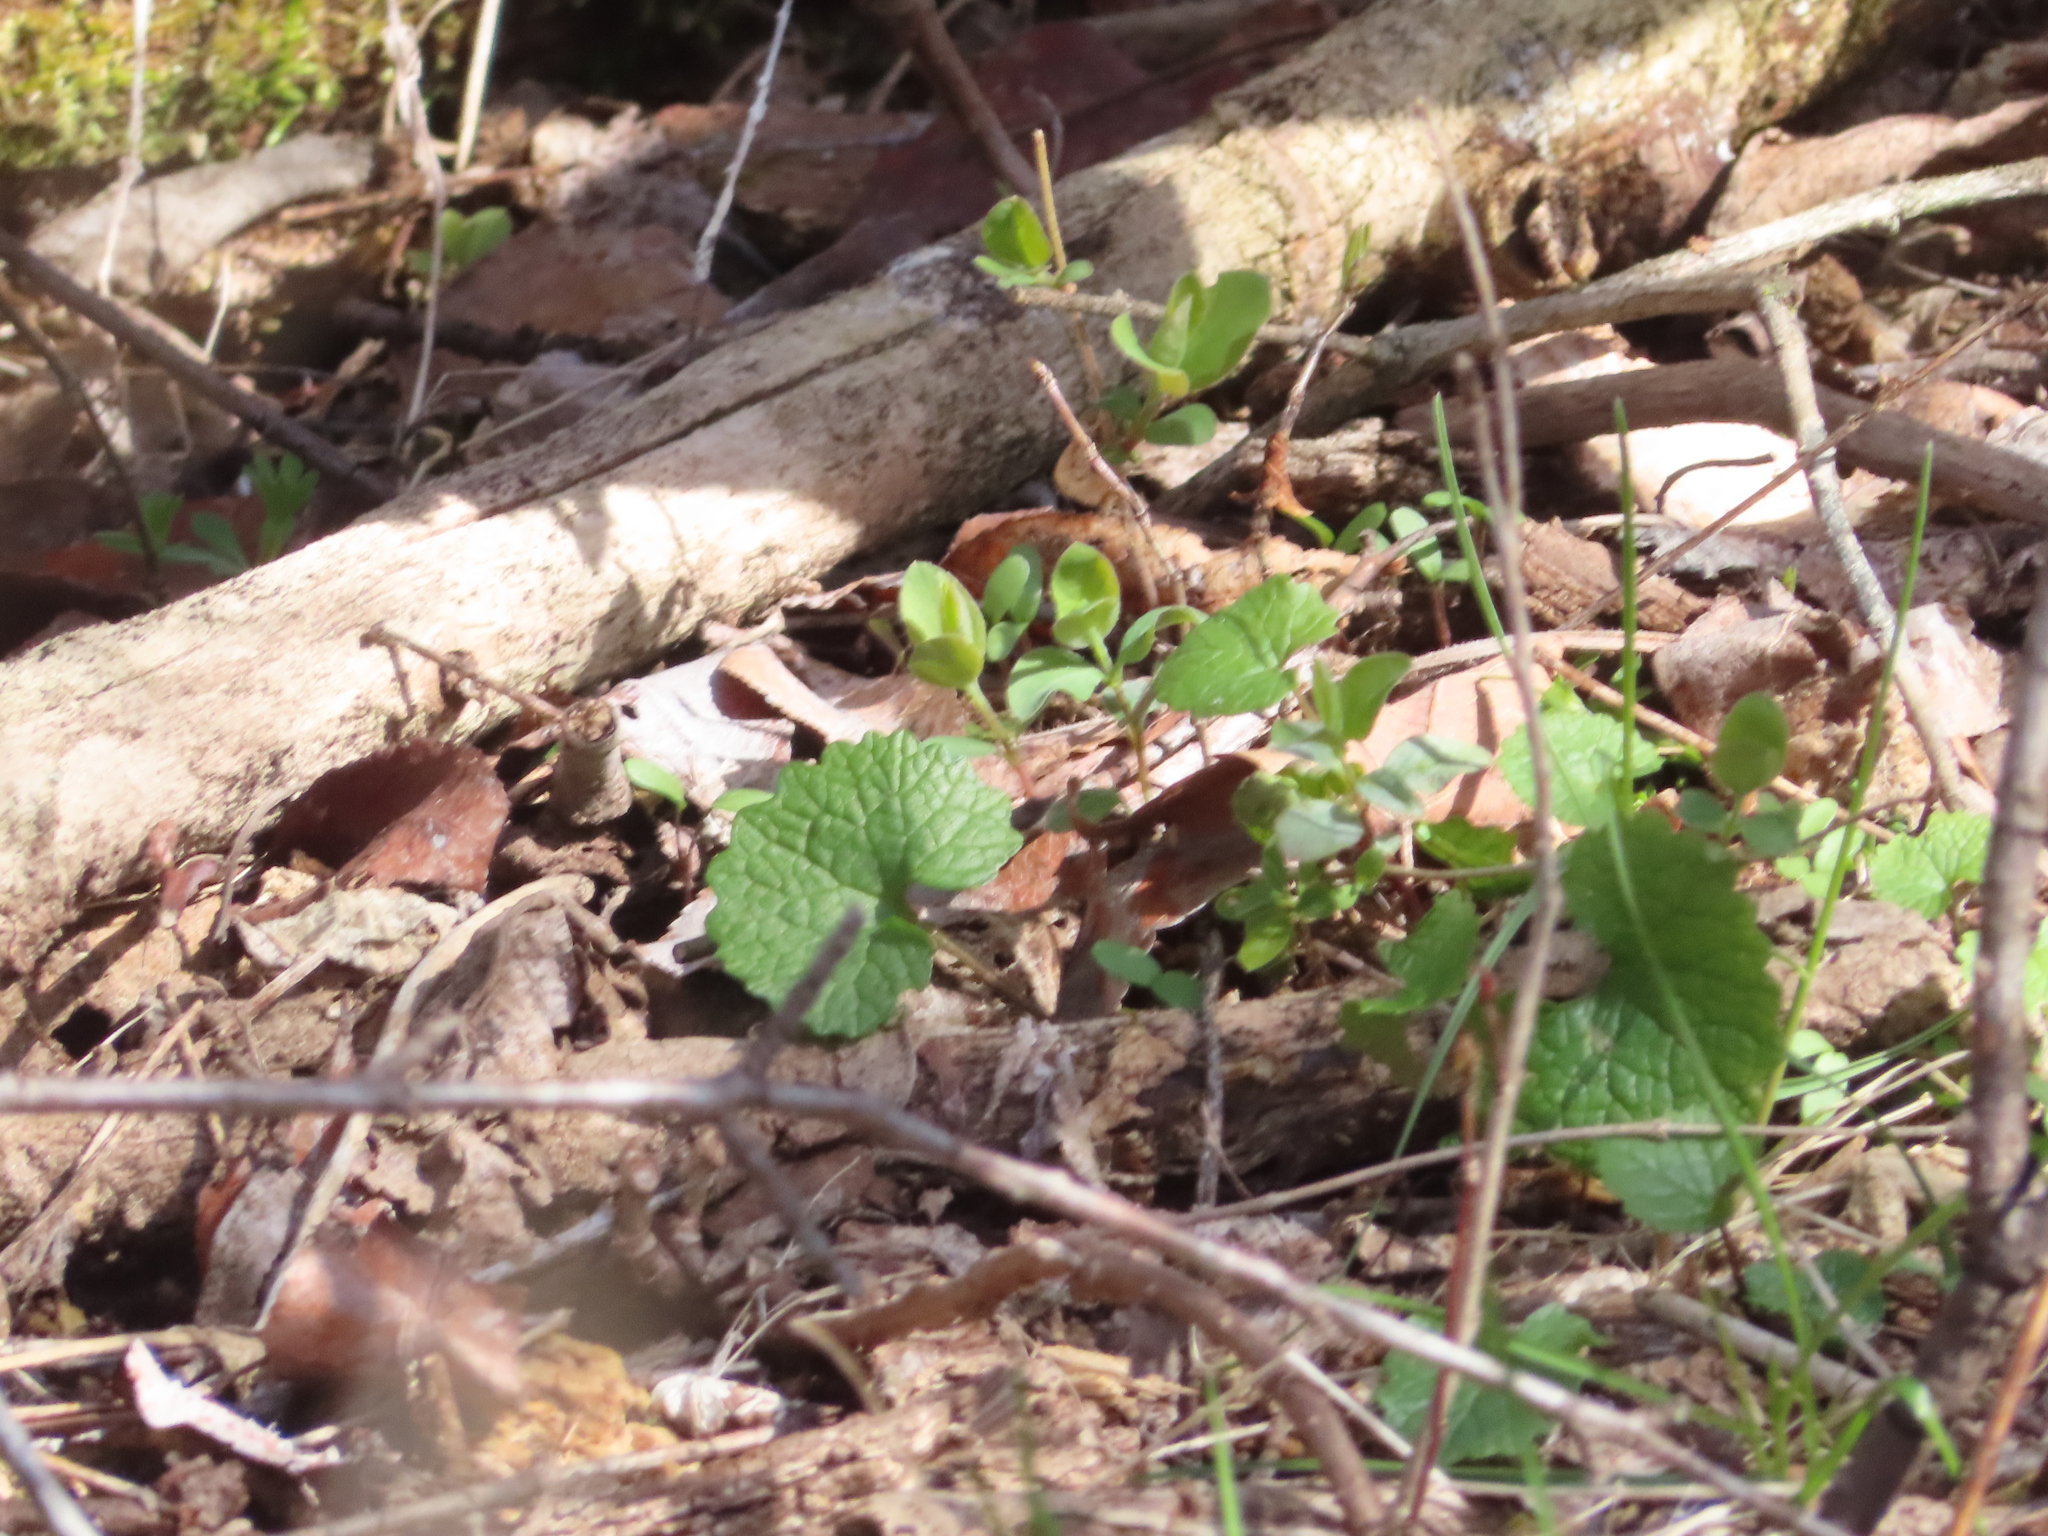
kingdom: Plantae
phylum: Tracheophyta
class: Magnoliopsida
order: Brassicales
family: Brassicaceae
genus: Alliaria
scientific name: Alliaria petiolata
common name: Garlic mustard
